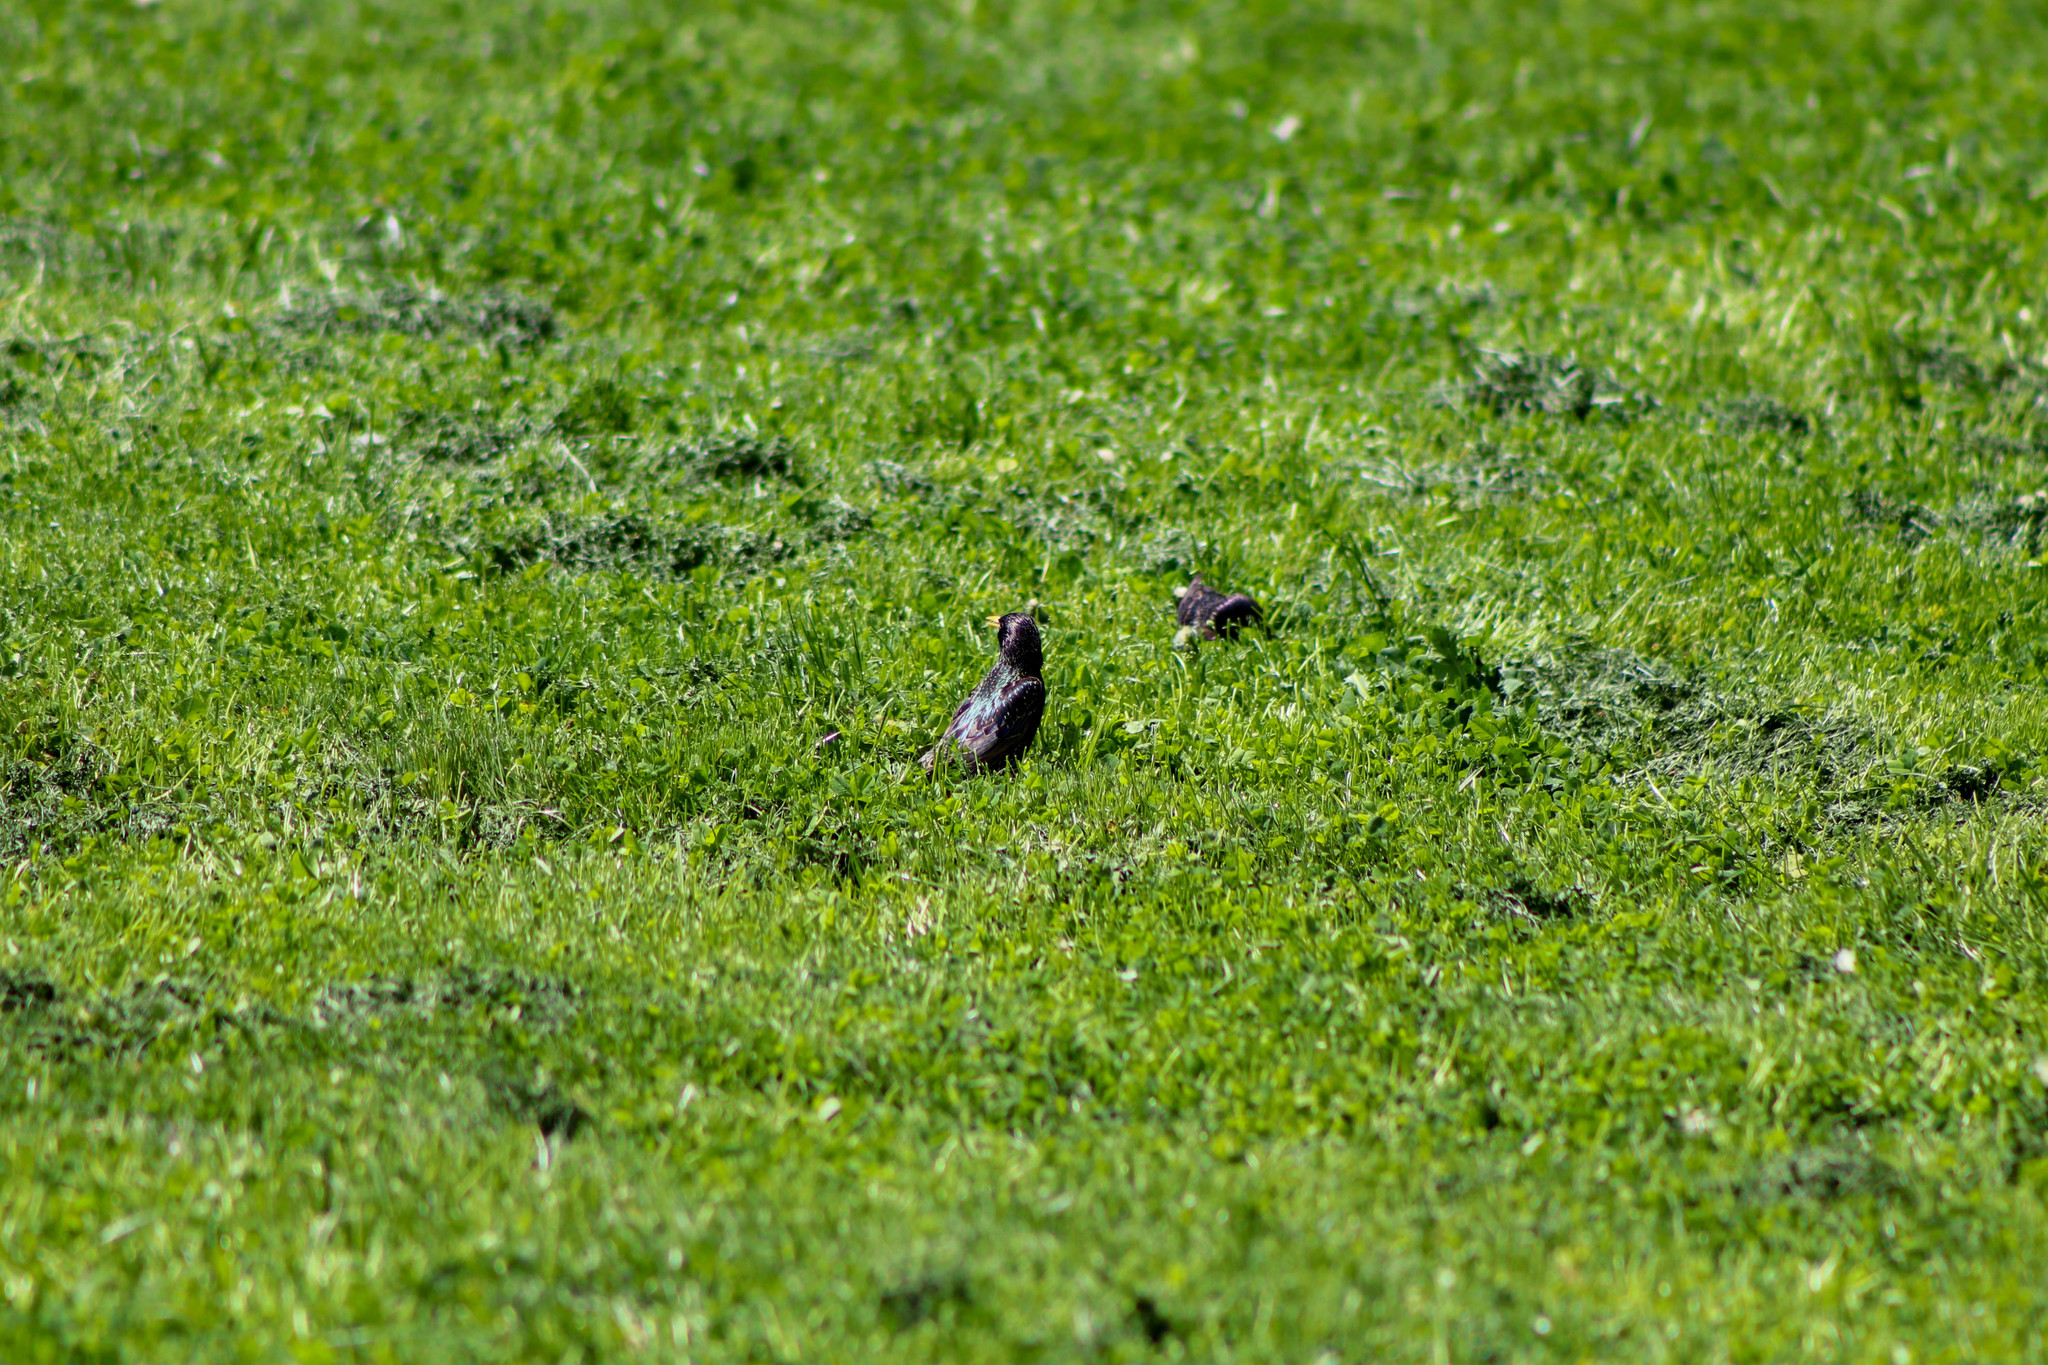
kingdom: Animalia
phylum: Chordata
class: Aves
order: Passeriformes
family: Sturnidae
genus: Sturnus
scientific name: Sturnus vulgaris
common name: Common starling
